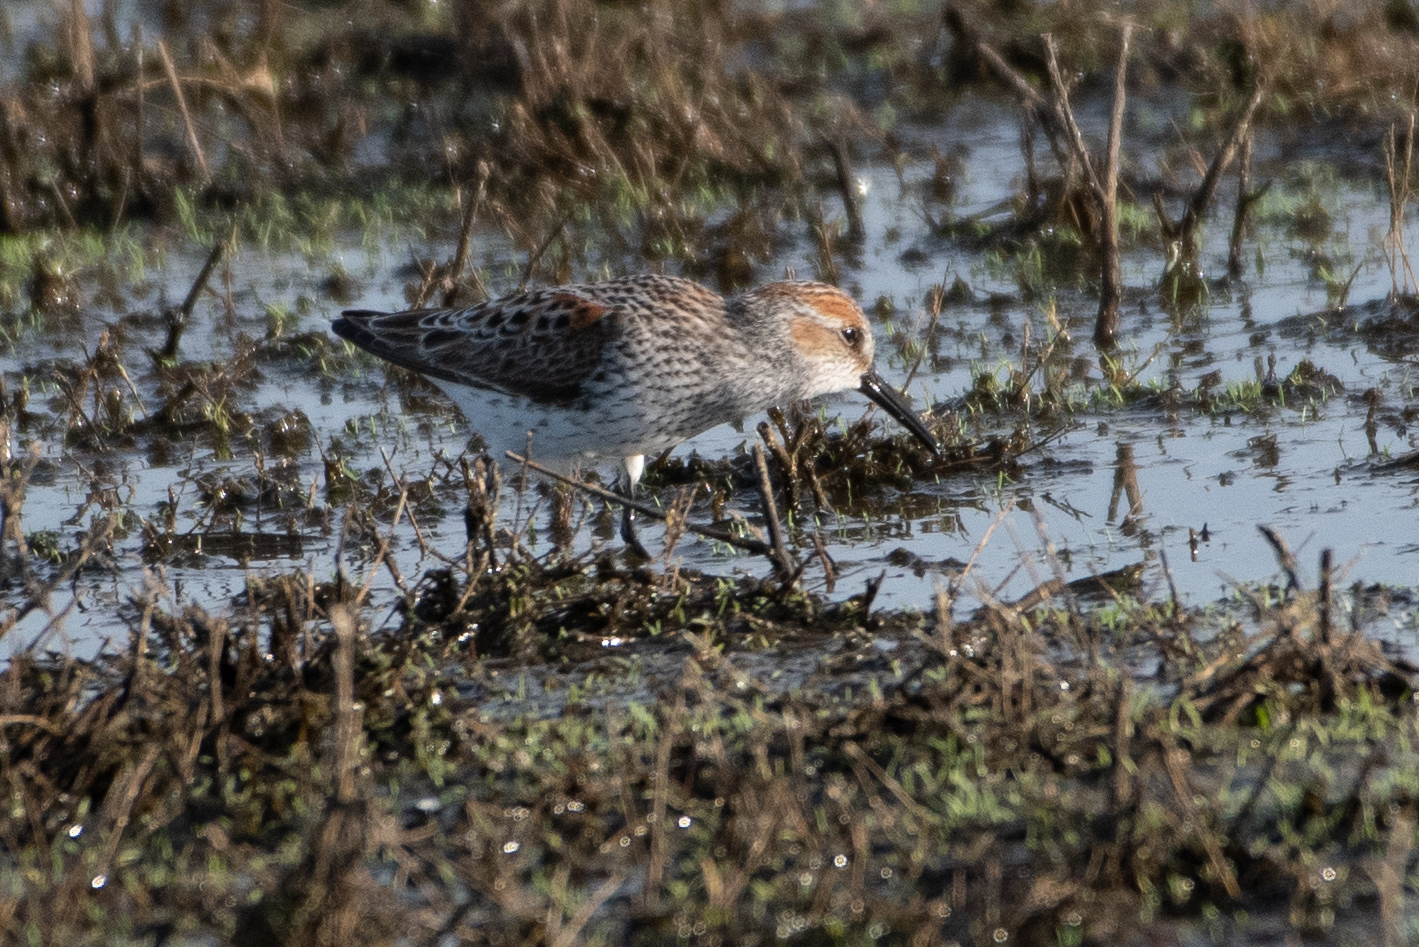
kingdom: Animalia
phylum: Chordata
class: Aves
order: Charadriiformes
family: Scolopacidae
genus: Calidris
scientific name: Calidris mauri
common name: Western sandpiper
